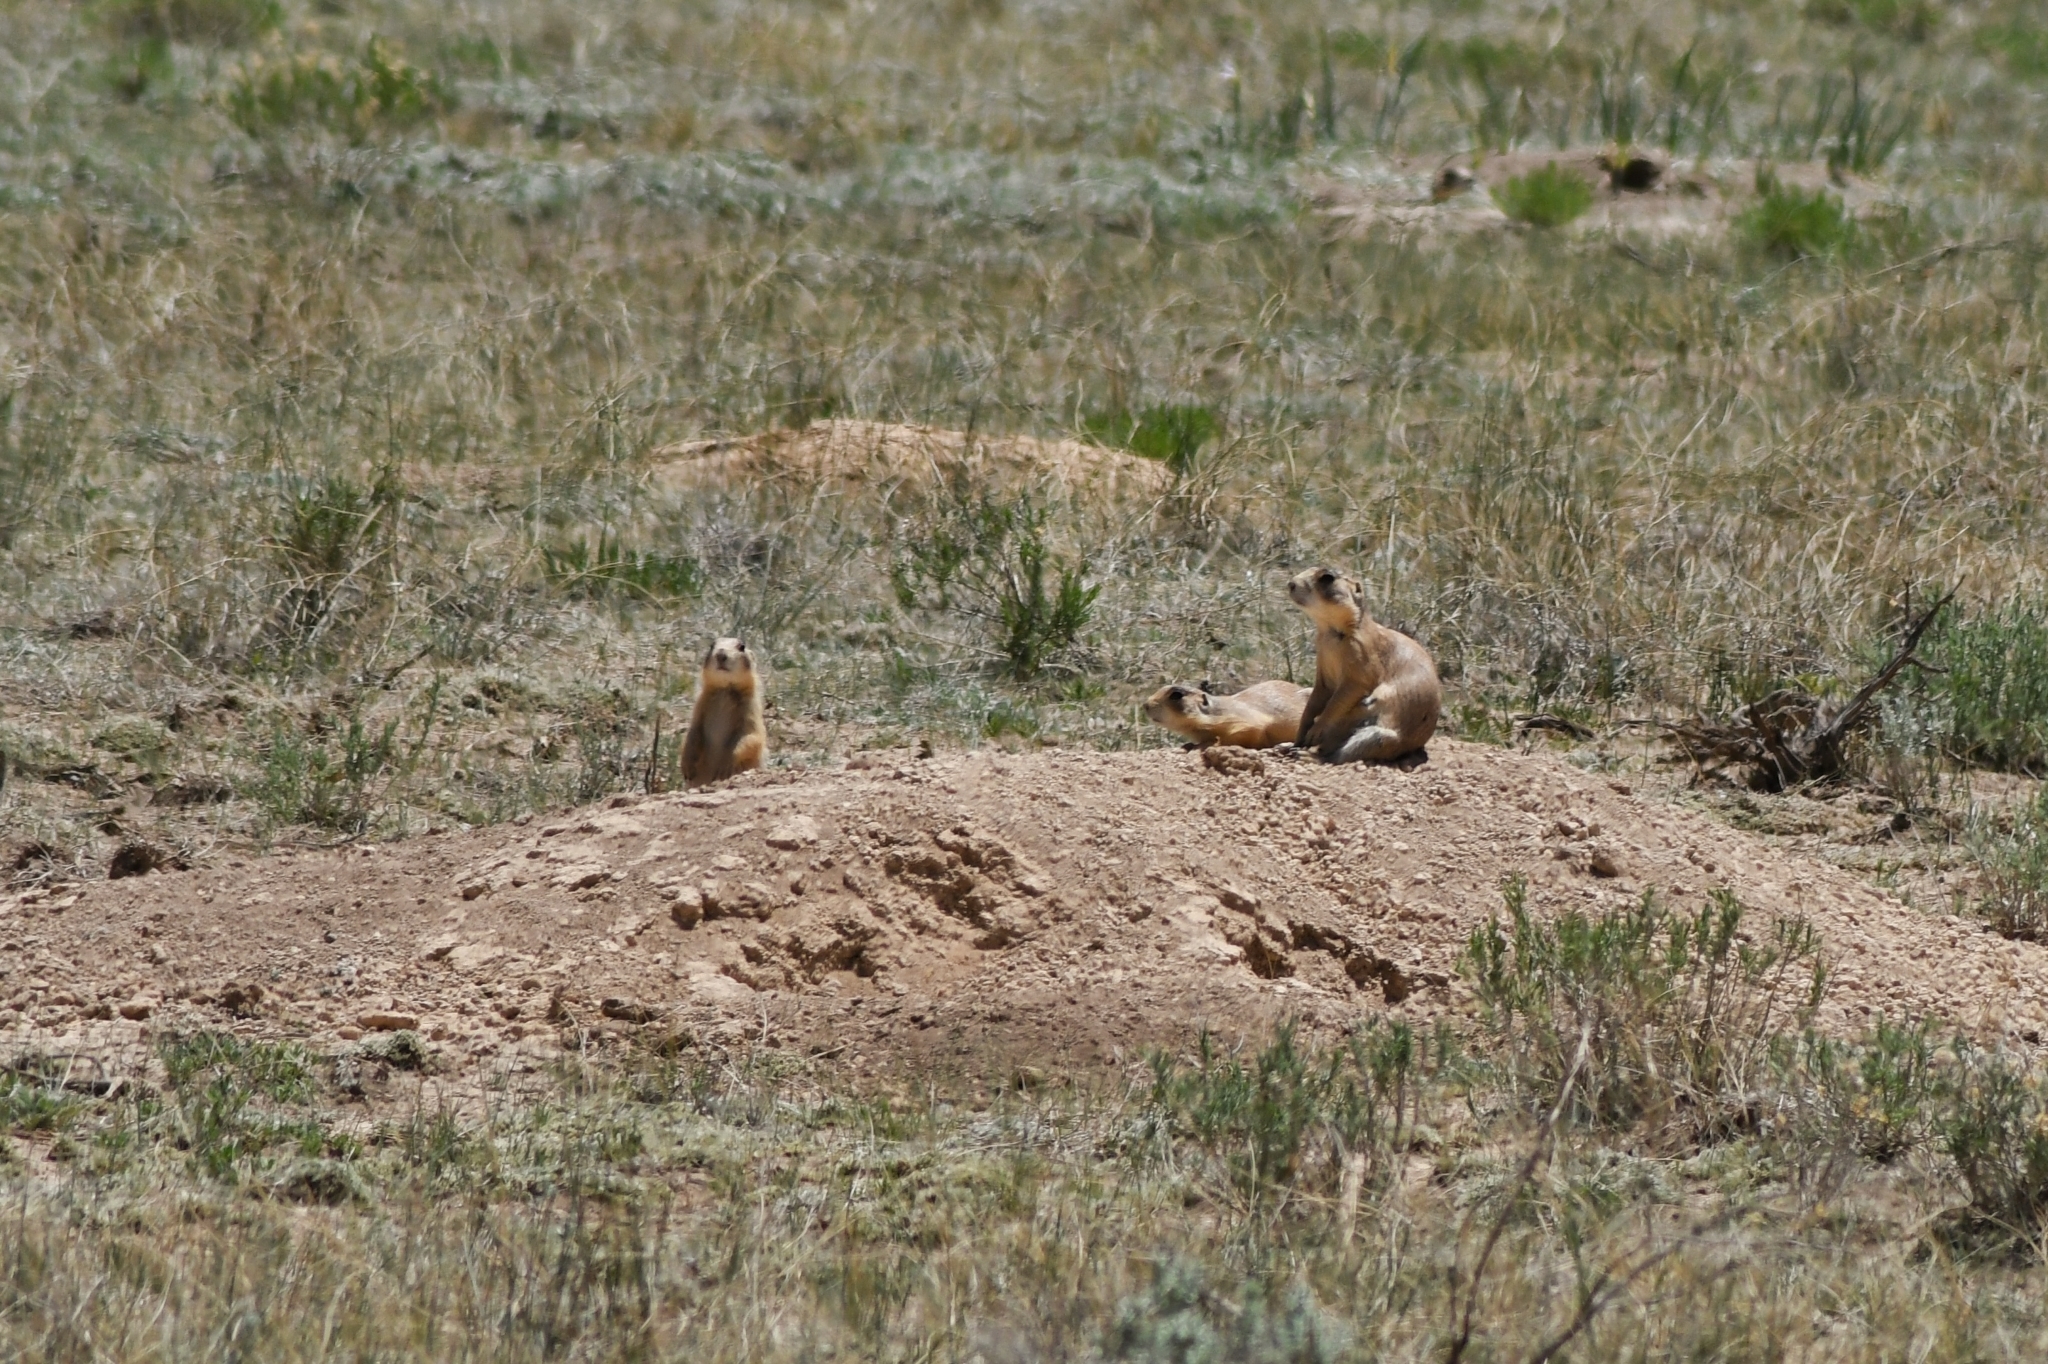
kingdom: Animalia
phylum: Chordata
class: Mammalia
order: Rodentia
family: Sciuridae
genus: Cynomys
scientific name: Cynomys parvidens
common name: Utah prairie dog
